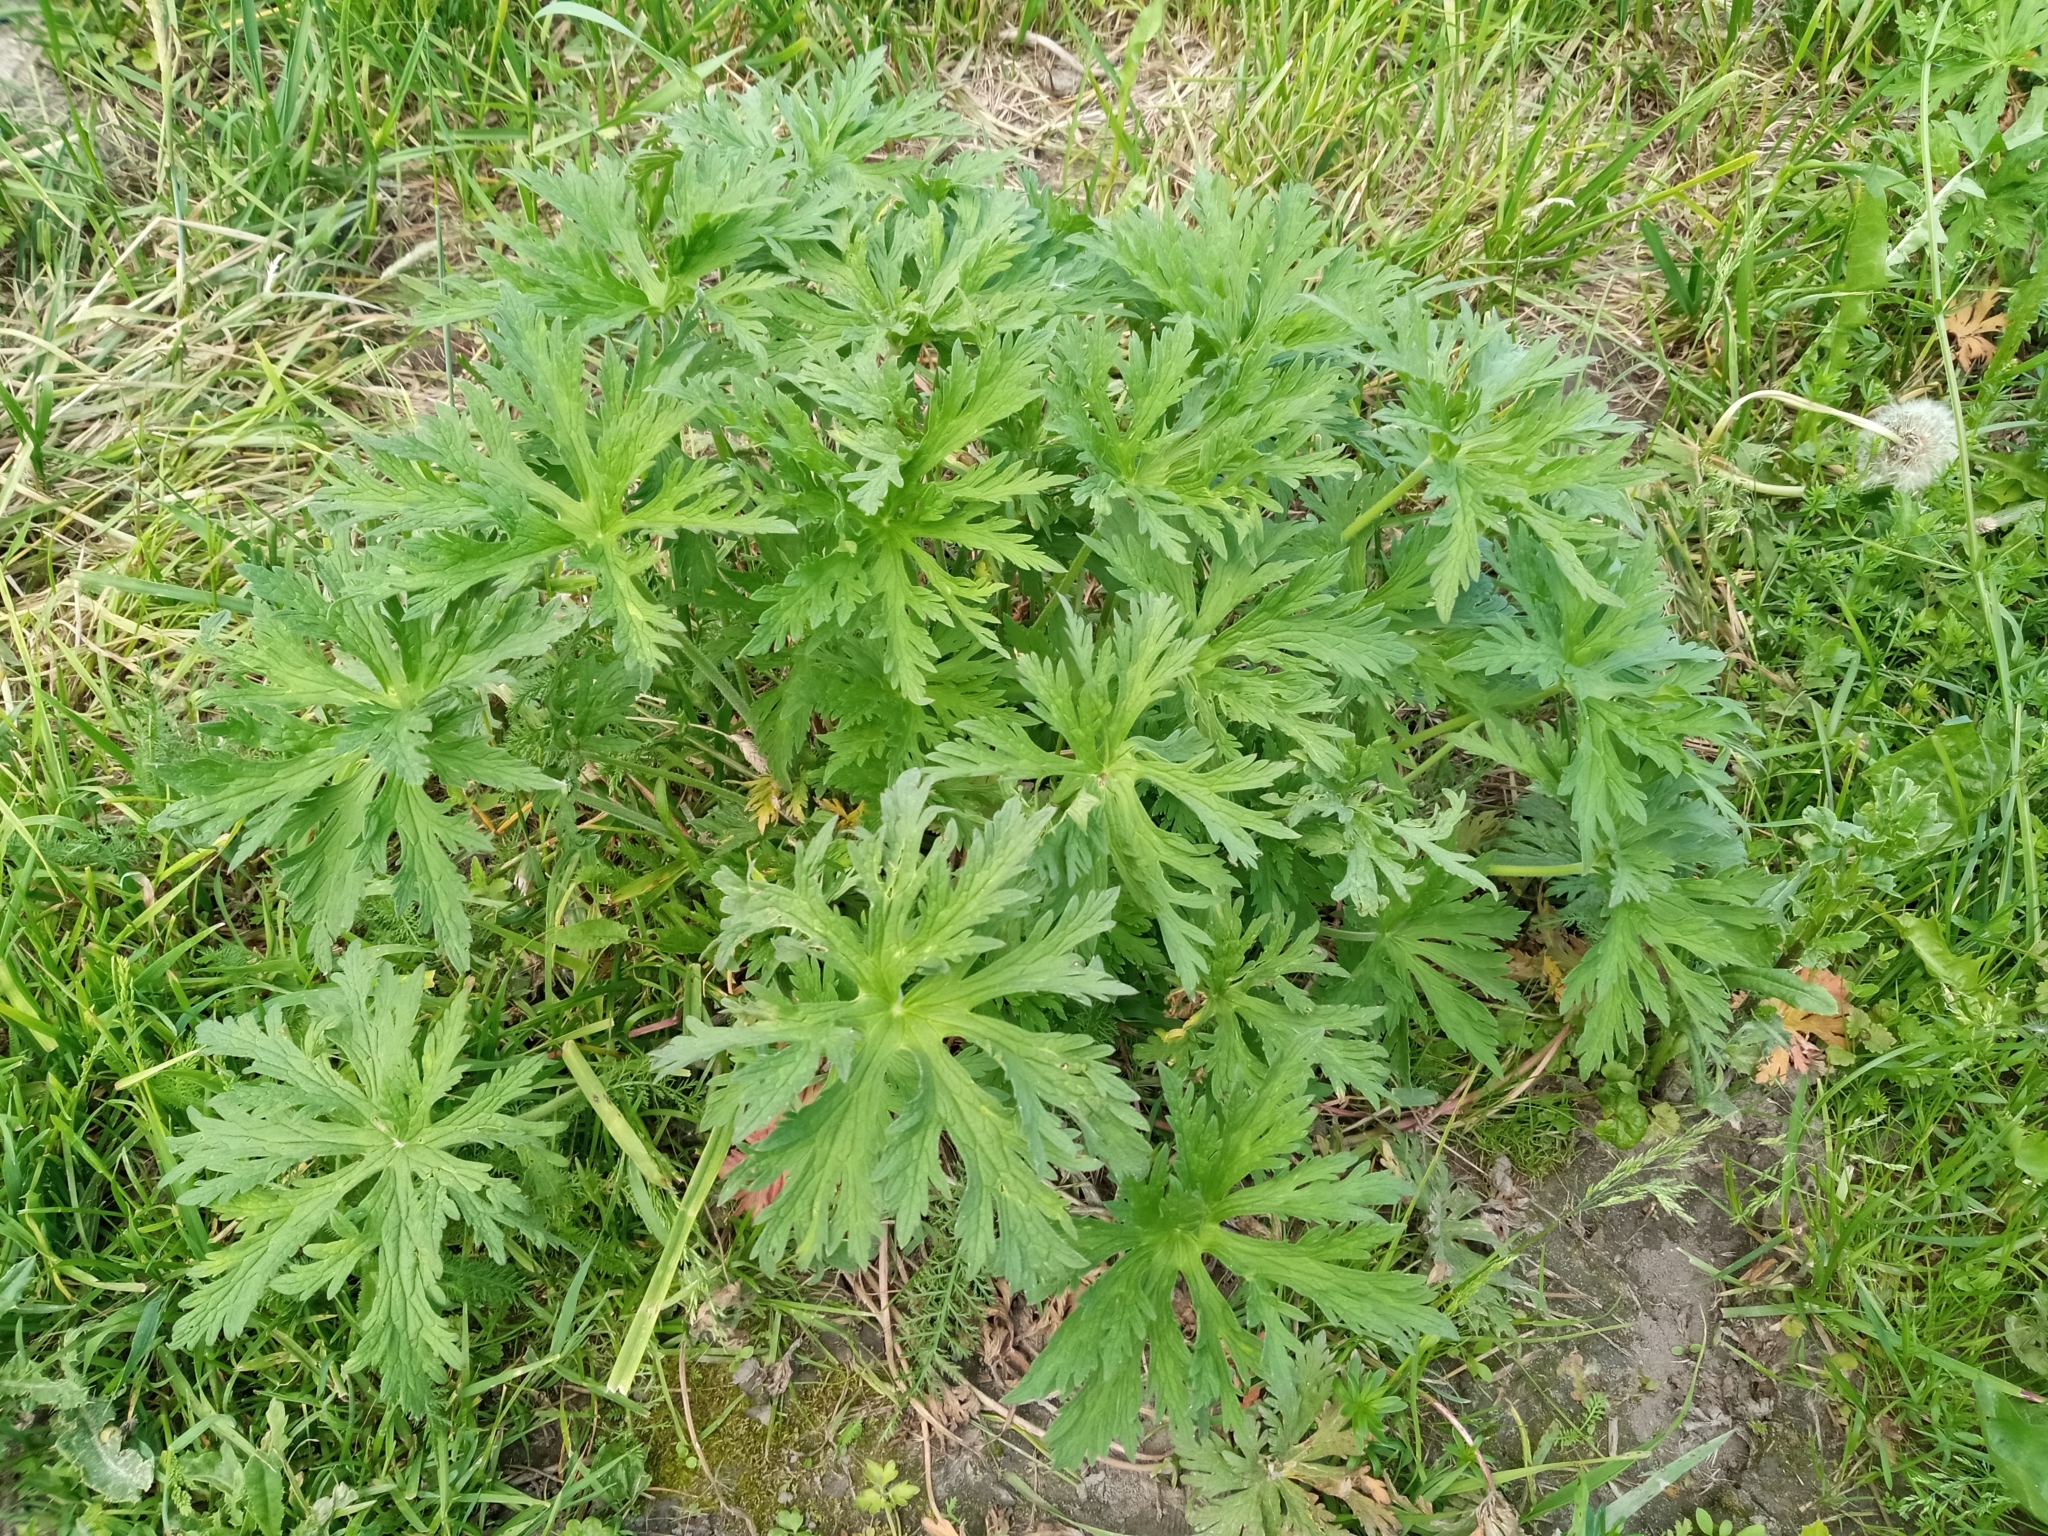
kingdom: Plantae
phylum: Tracheophyta
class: Magnoliopsida
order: Geraniales
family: Geraniaceae
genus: Geranium
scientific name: Geranium pratense
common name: Meadow crane's-bill
